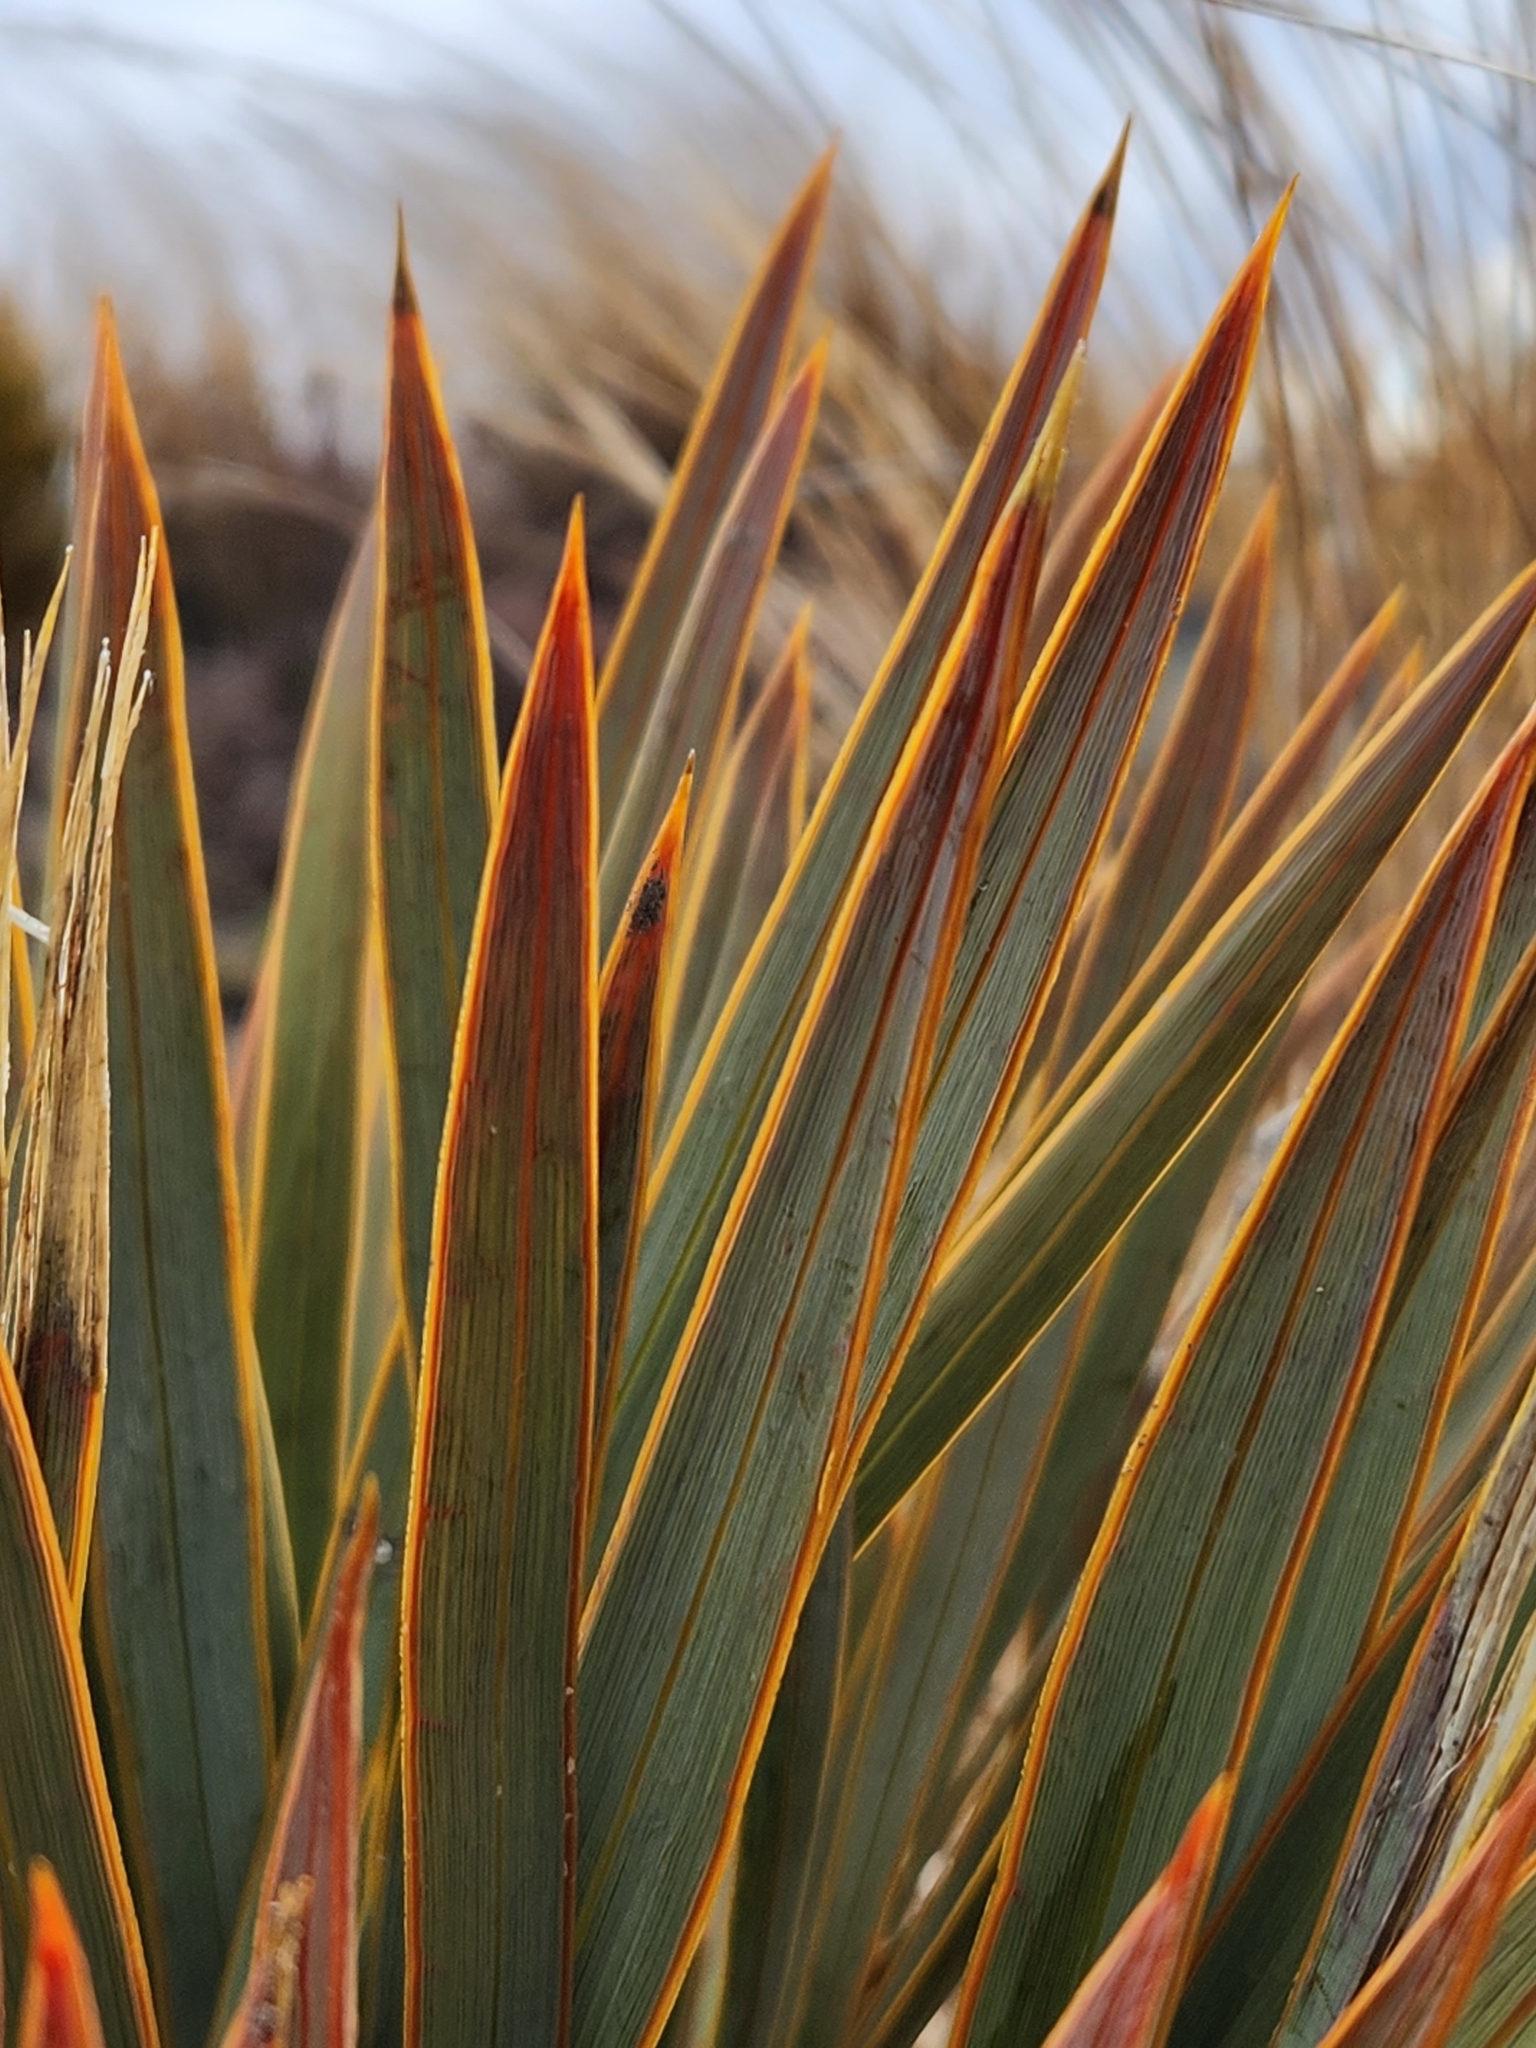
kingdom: Plantae
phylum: Tracheophyta
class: Magnoliopsida
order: Apiales
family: Apiaceae
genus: Aciphylla
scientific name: Aciphylla aurea
